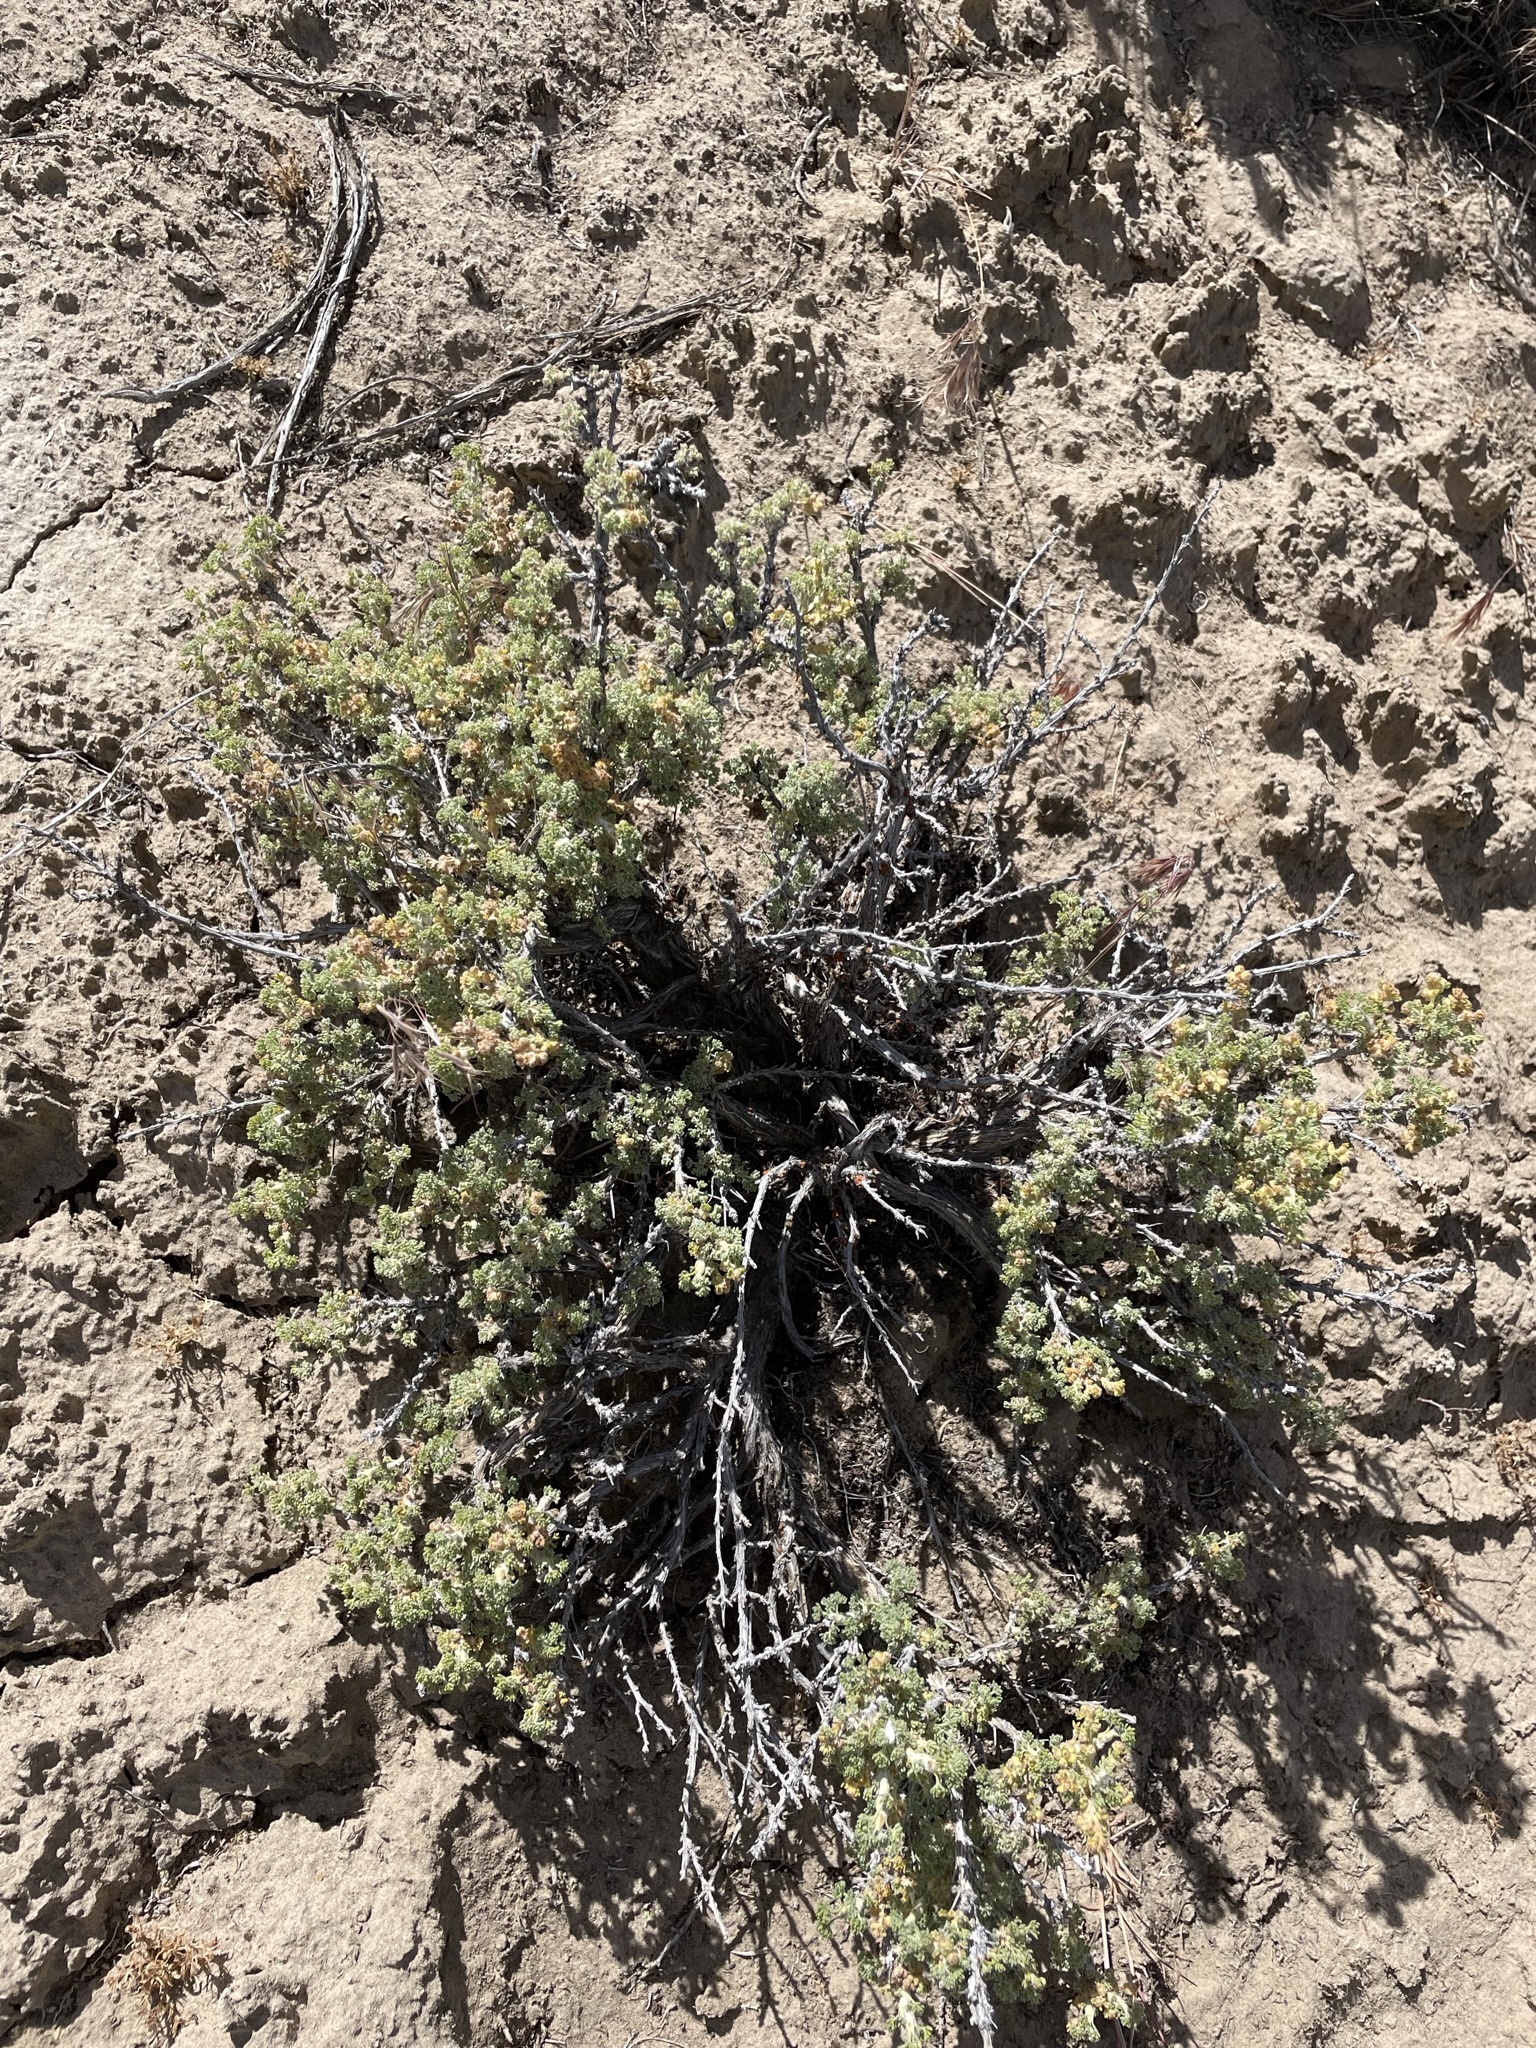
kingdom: Plantae
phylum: Tracheophyta
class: Magnoliopsida
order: Asterales
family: Asteraceae
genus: Artemisia
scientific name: Artemisia spinescens
